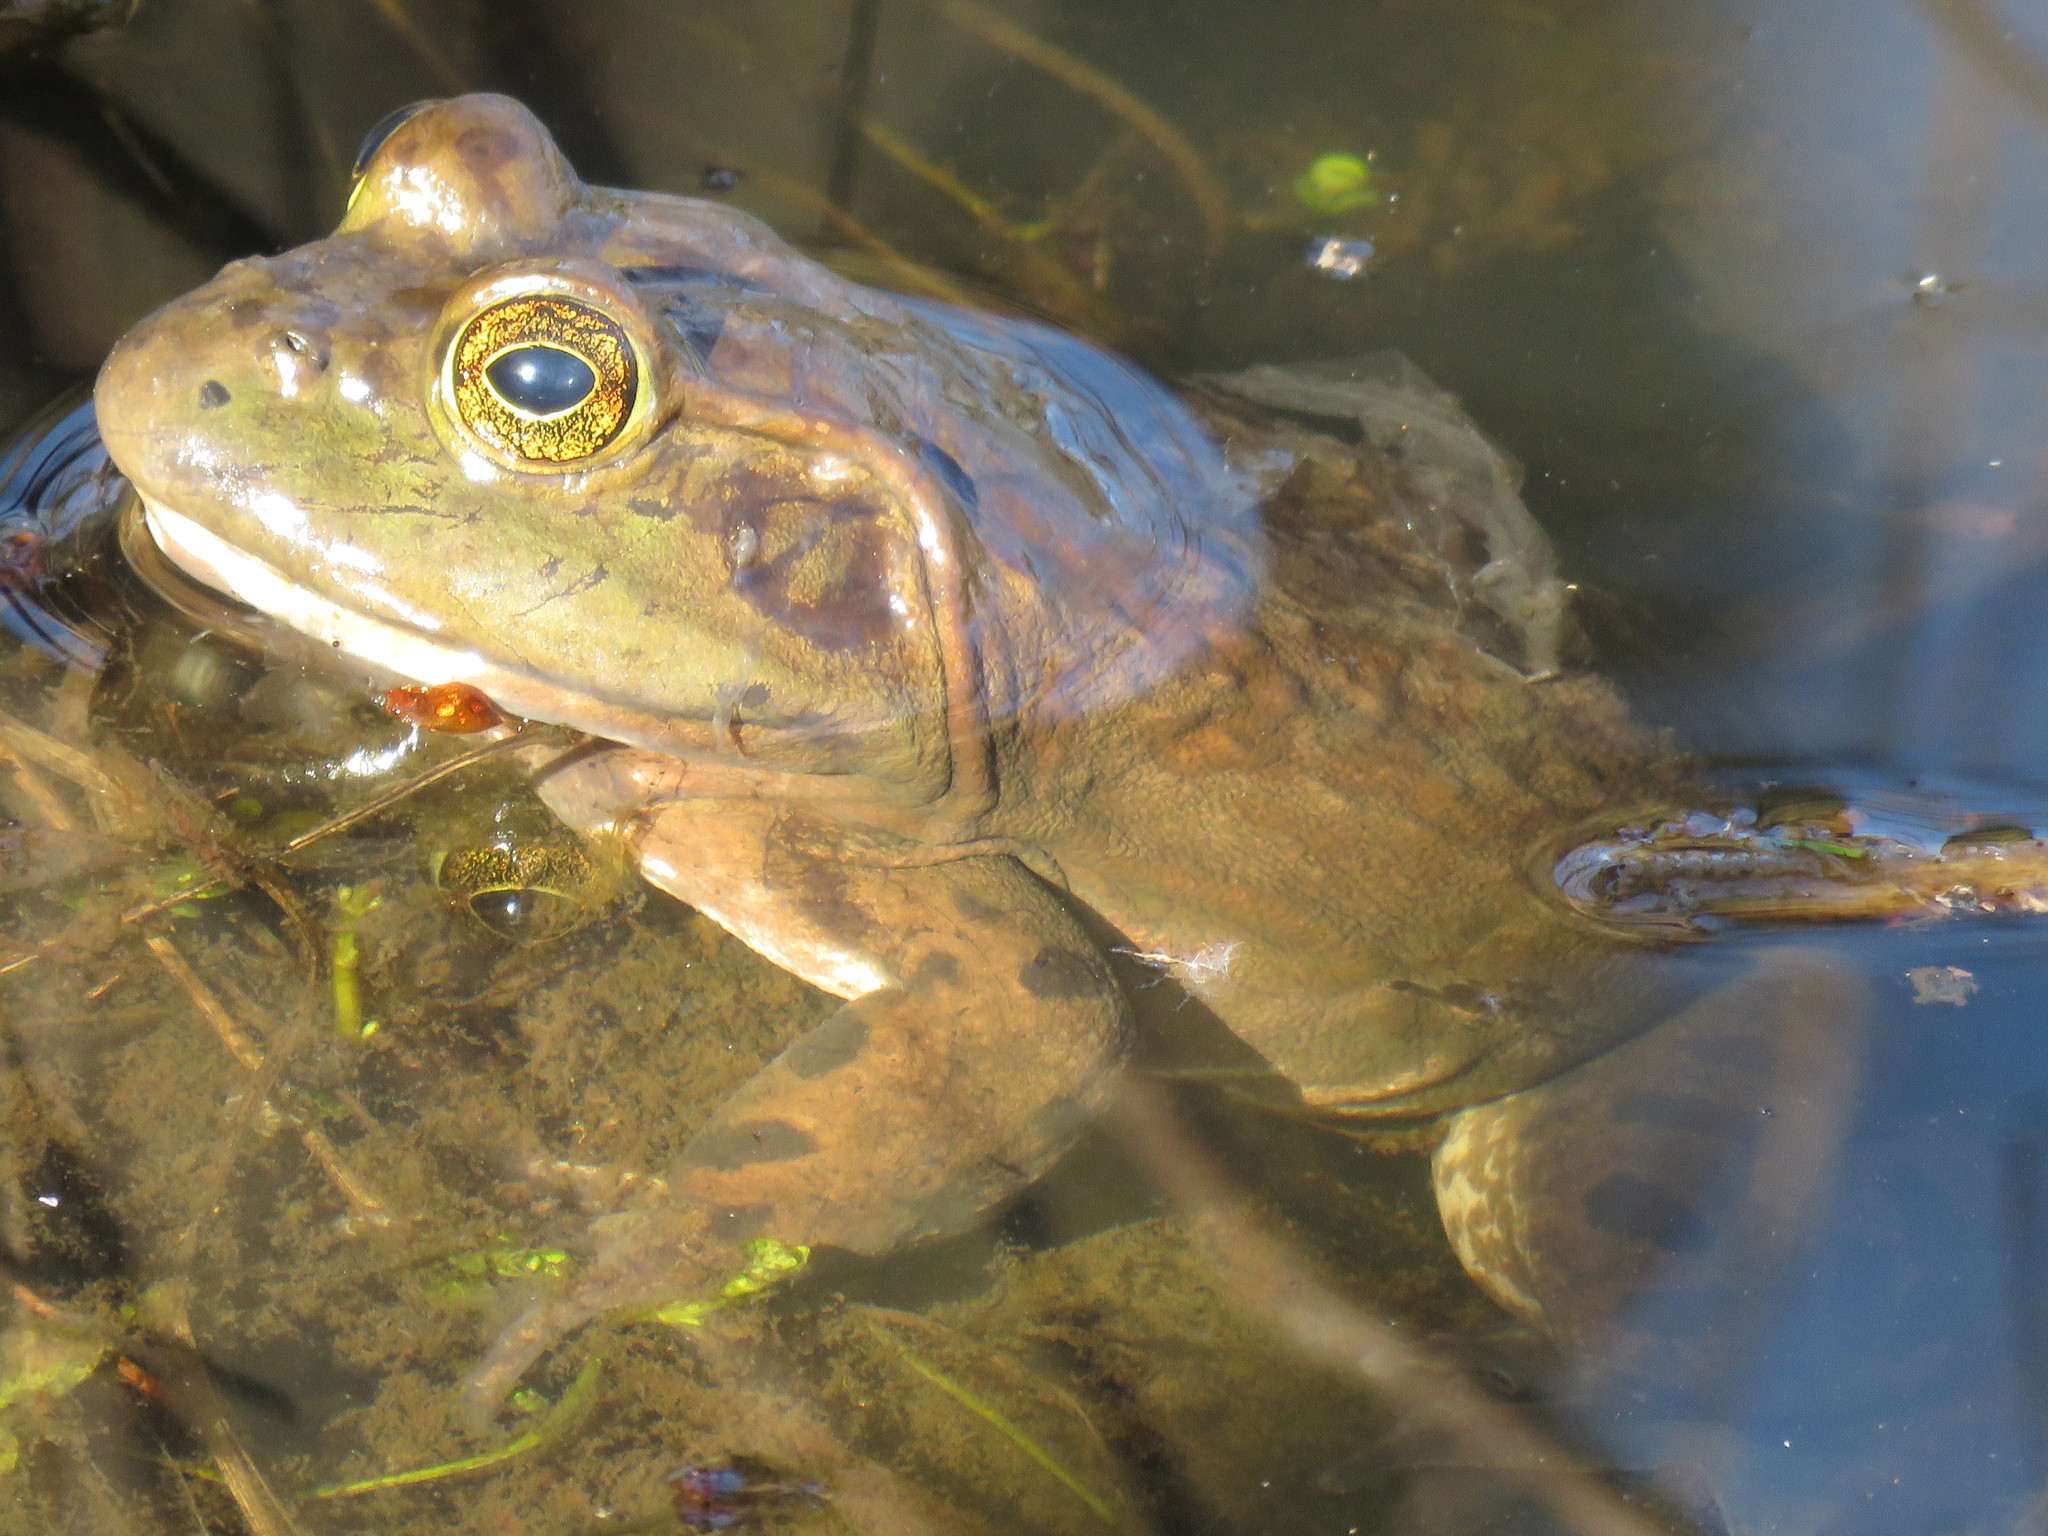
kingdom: Animalia
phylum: Chordata
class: Amphibia
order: Anura
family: Ranidae
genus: Lithobates
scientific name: Lithobates catesbeianus
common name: American bullfrog
